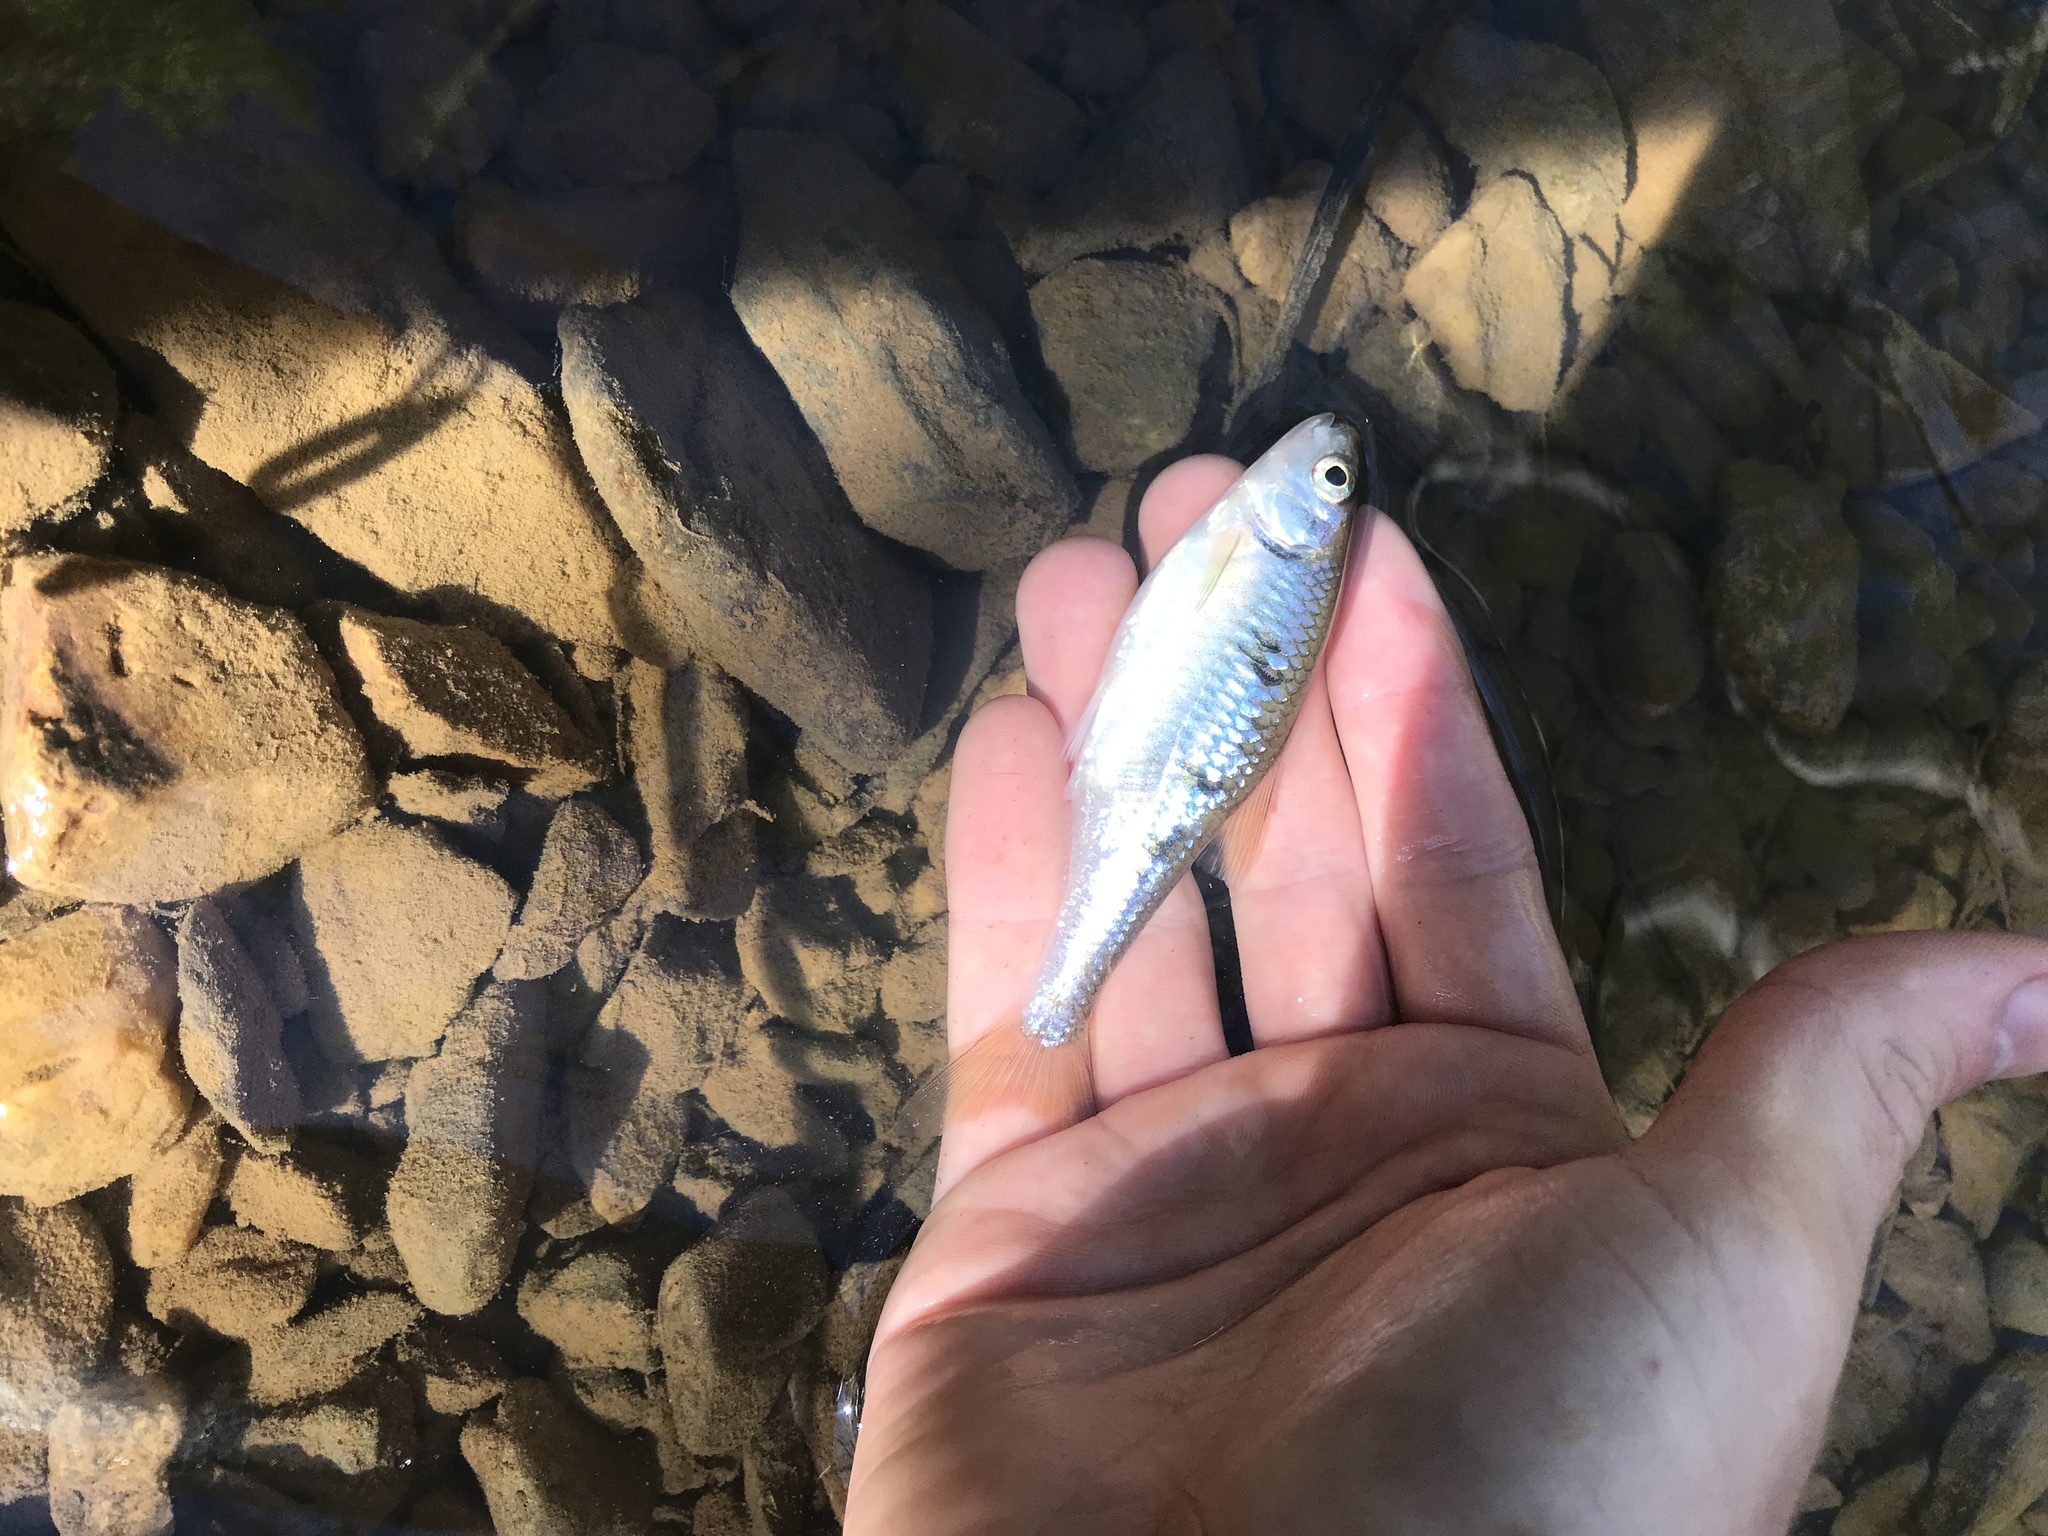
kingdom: Animalia
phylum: Chordata
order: Cypriniformes
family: Cyprinidae
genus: Luxilus
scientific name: Luxilus albeolus
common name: White shiner
